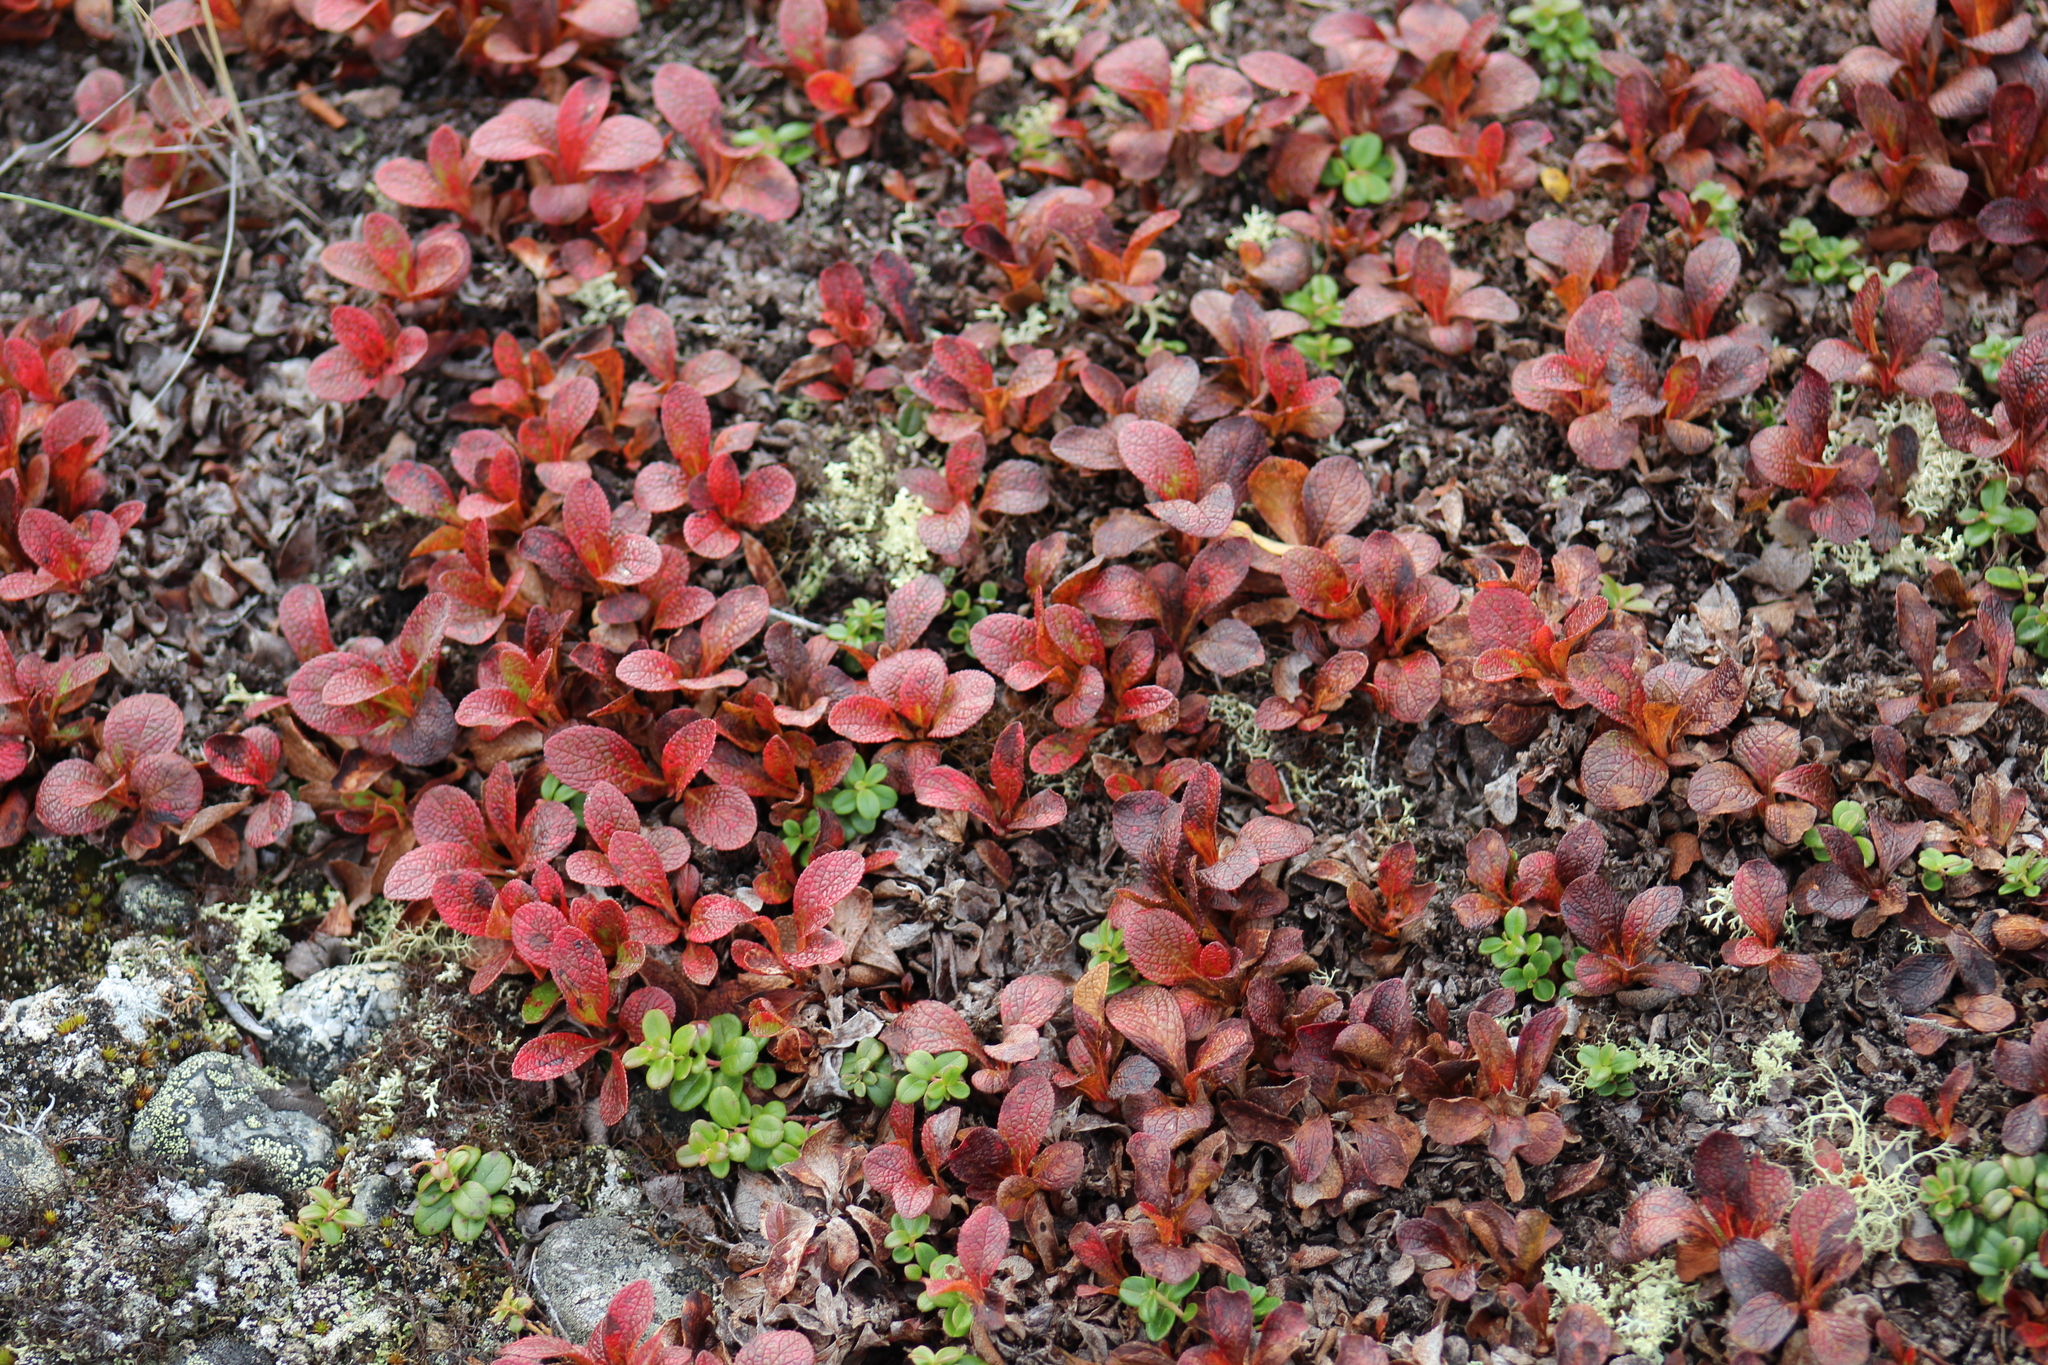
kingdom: Plantae
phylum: Tracheophyta
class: Magnoliopsida
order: Ericales
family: Ericaceae
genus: Arctostaphylos
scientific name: Arctostaphylos alpinus
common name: Alpine bearberry
